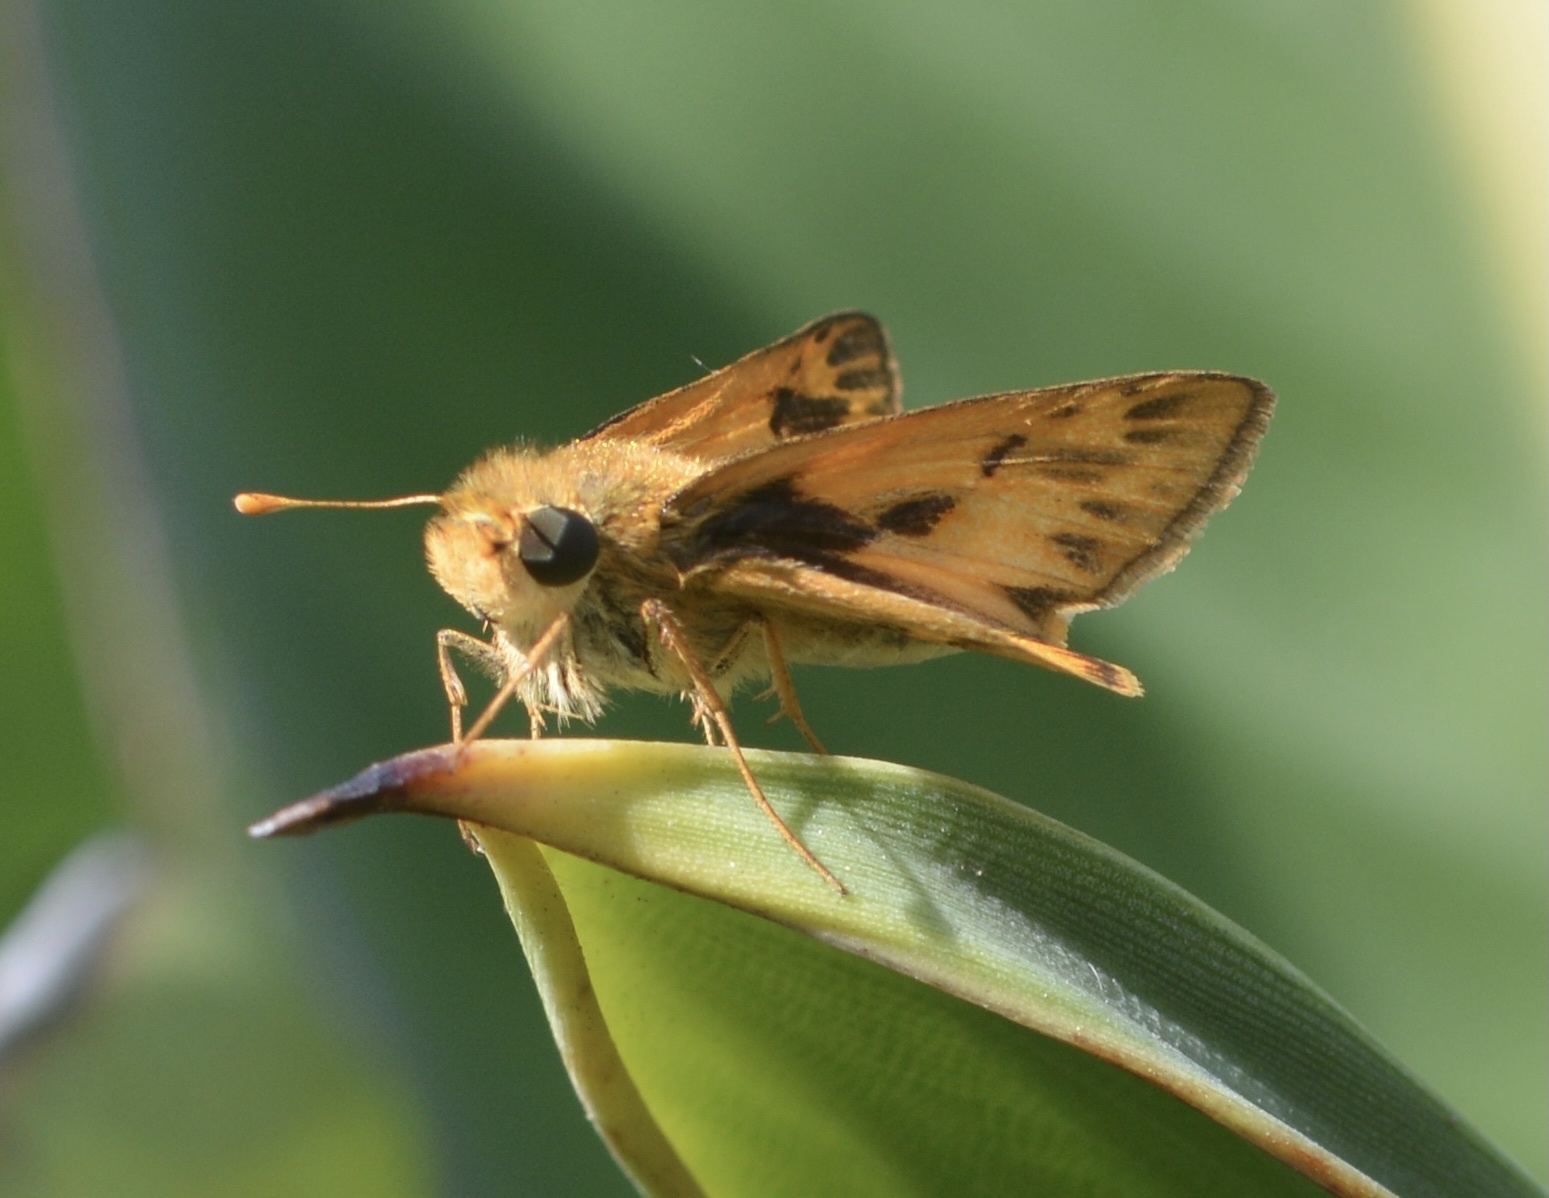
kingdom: Animalia
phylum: Arthropoda
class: Insecta
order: Lepidoptera
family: Hesperiidae
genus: Hylephila
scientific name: Hylephila phyleus
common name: Fiery skipper
